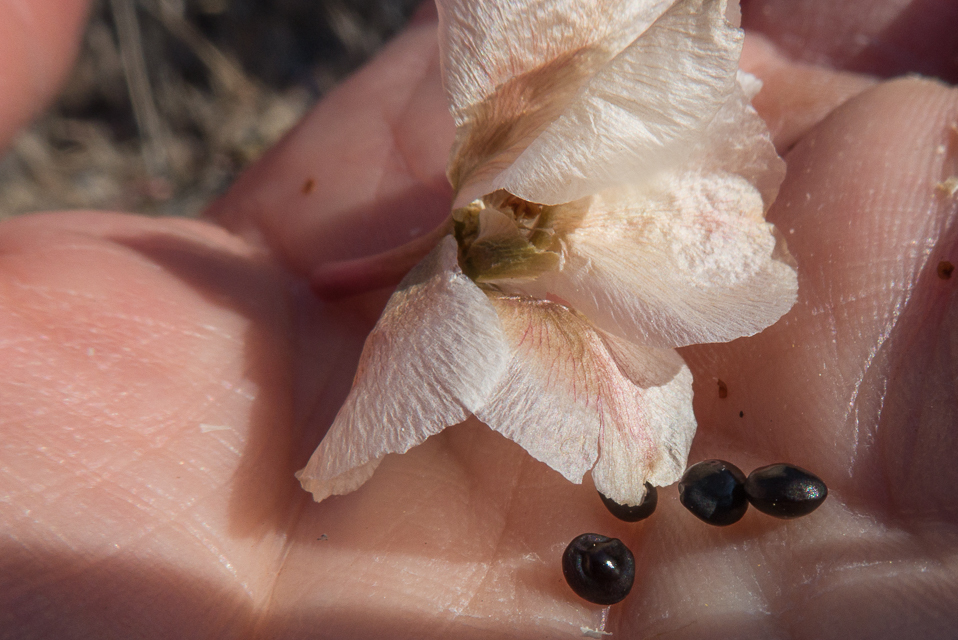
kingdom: Plantae
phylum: Tracheophyta
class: Magnoliopsida
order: Caryophyllales
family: Montiaceae
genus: Lewisia
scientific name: Lewisia rediviva
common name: Bitter-root
